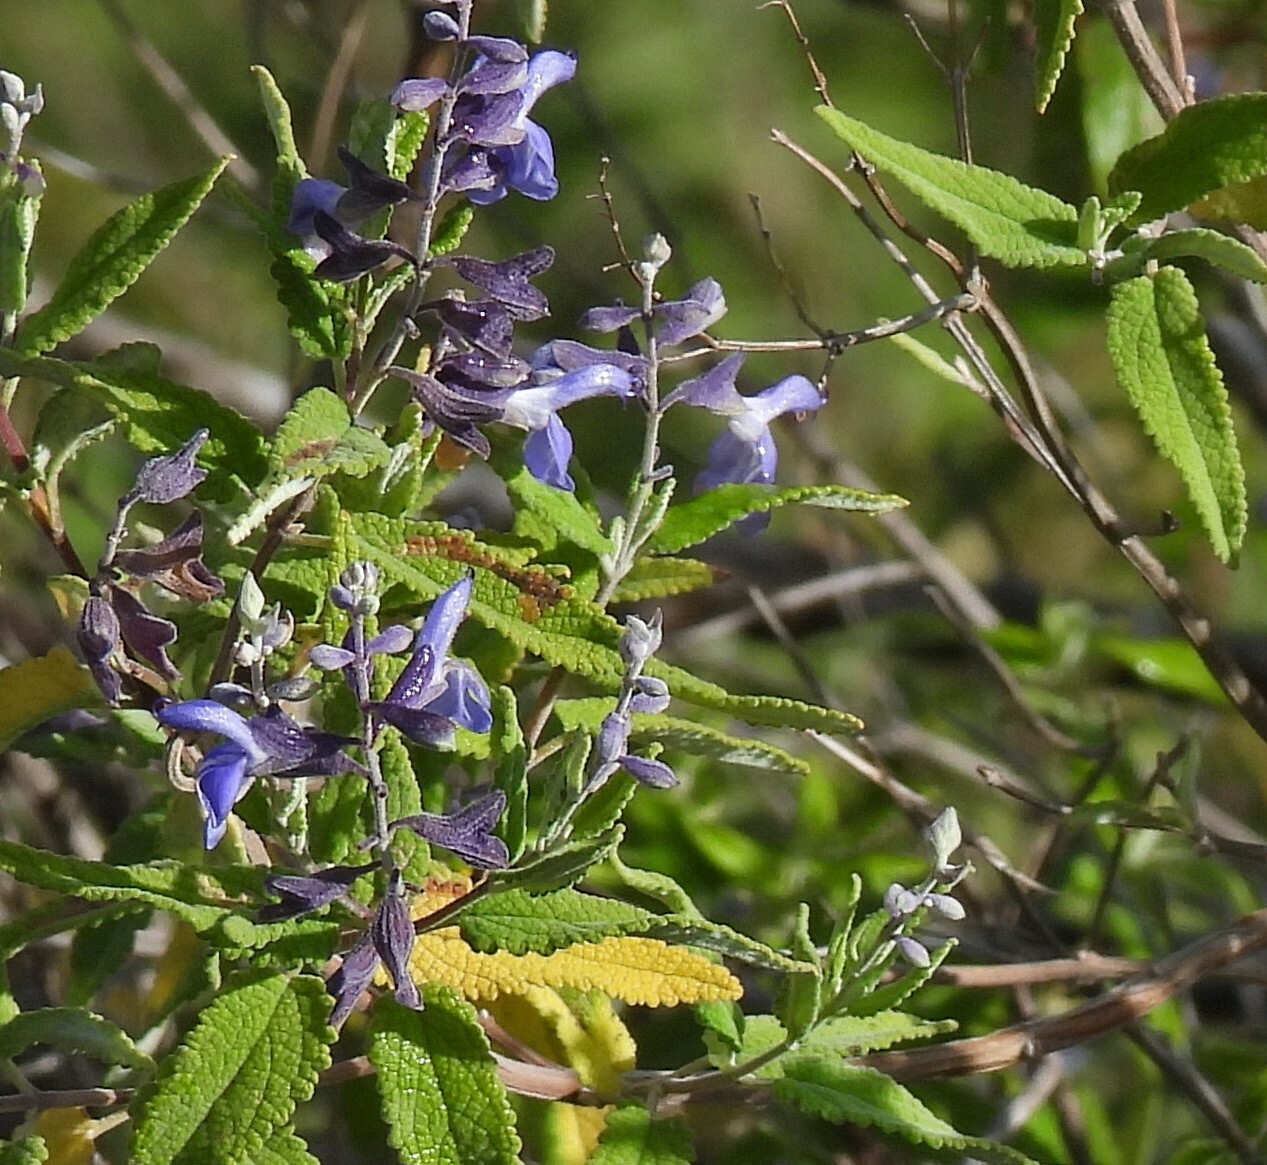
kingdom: Plantae
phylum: Tracheophyta
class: Magnoliopsida
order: Lamiales
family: Lamiaceae
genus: Salvia
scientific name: Salvia cuspidata
